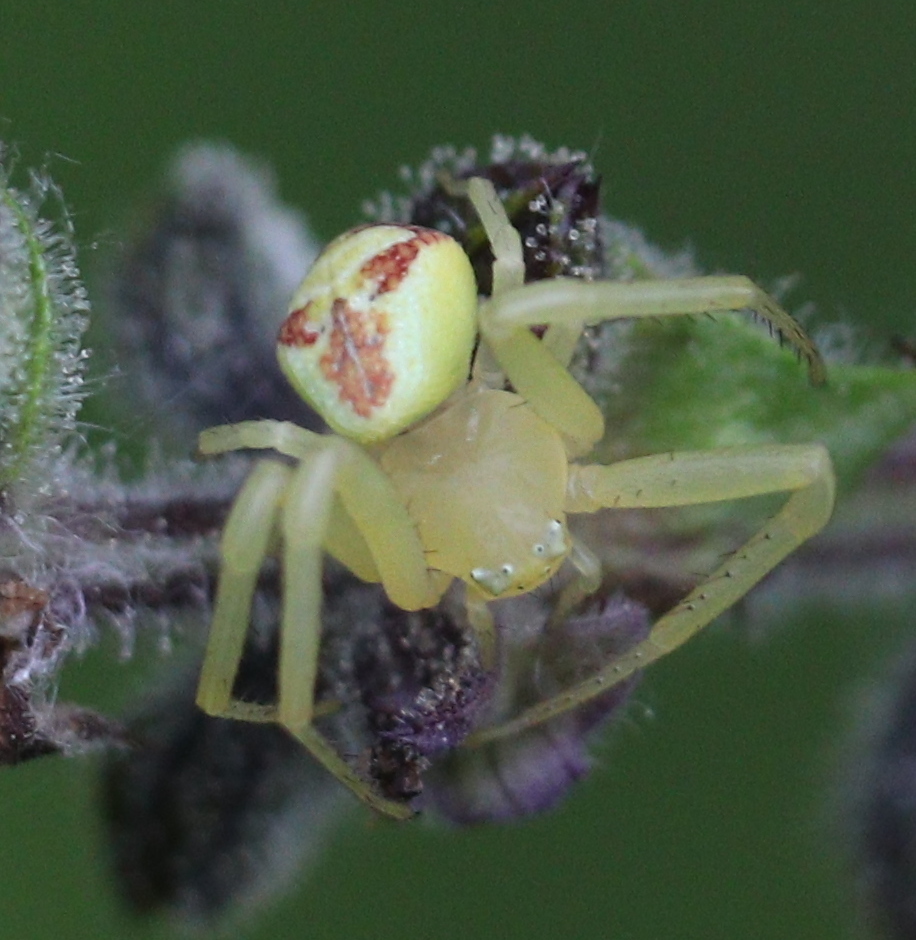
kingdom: Animalia
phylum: Arthropoda
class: Arachnida
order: Araneae
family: Thomisidae
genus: Ebrechtella
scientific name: Ebrechtella tricuspidata
